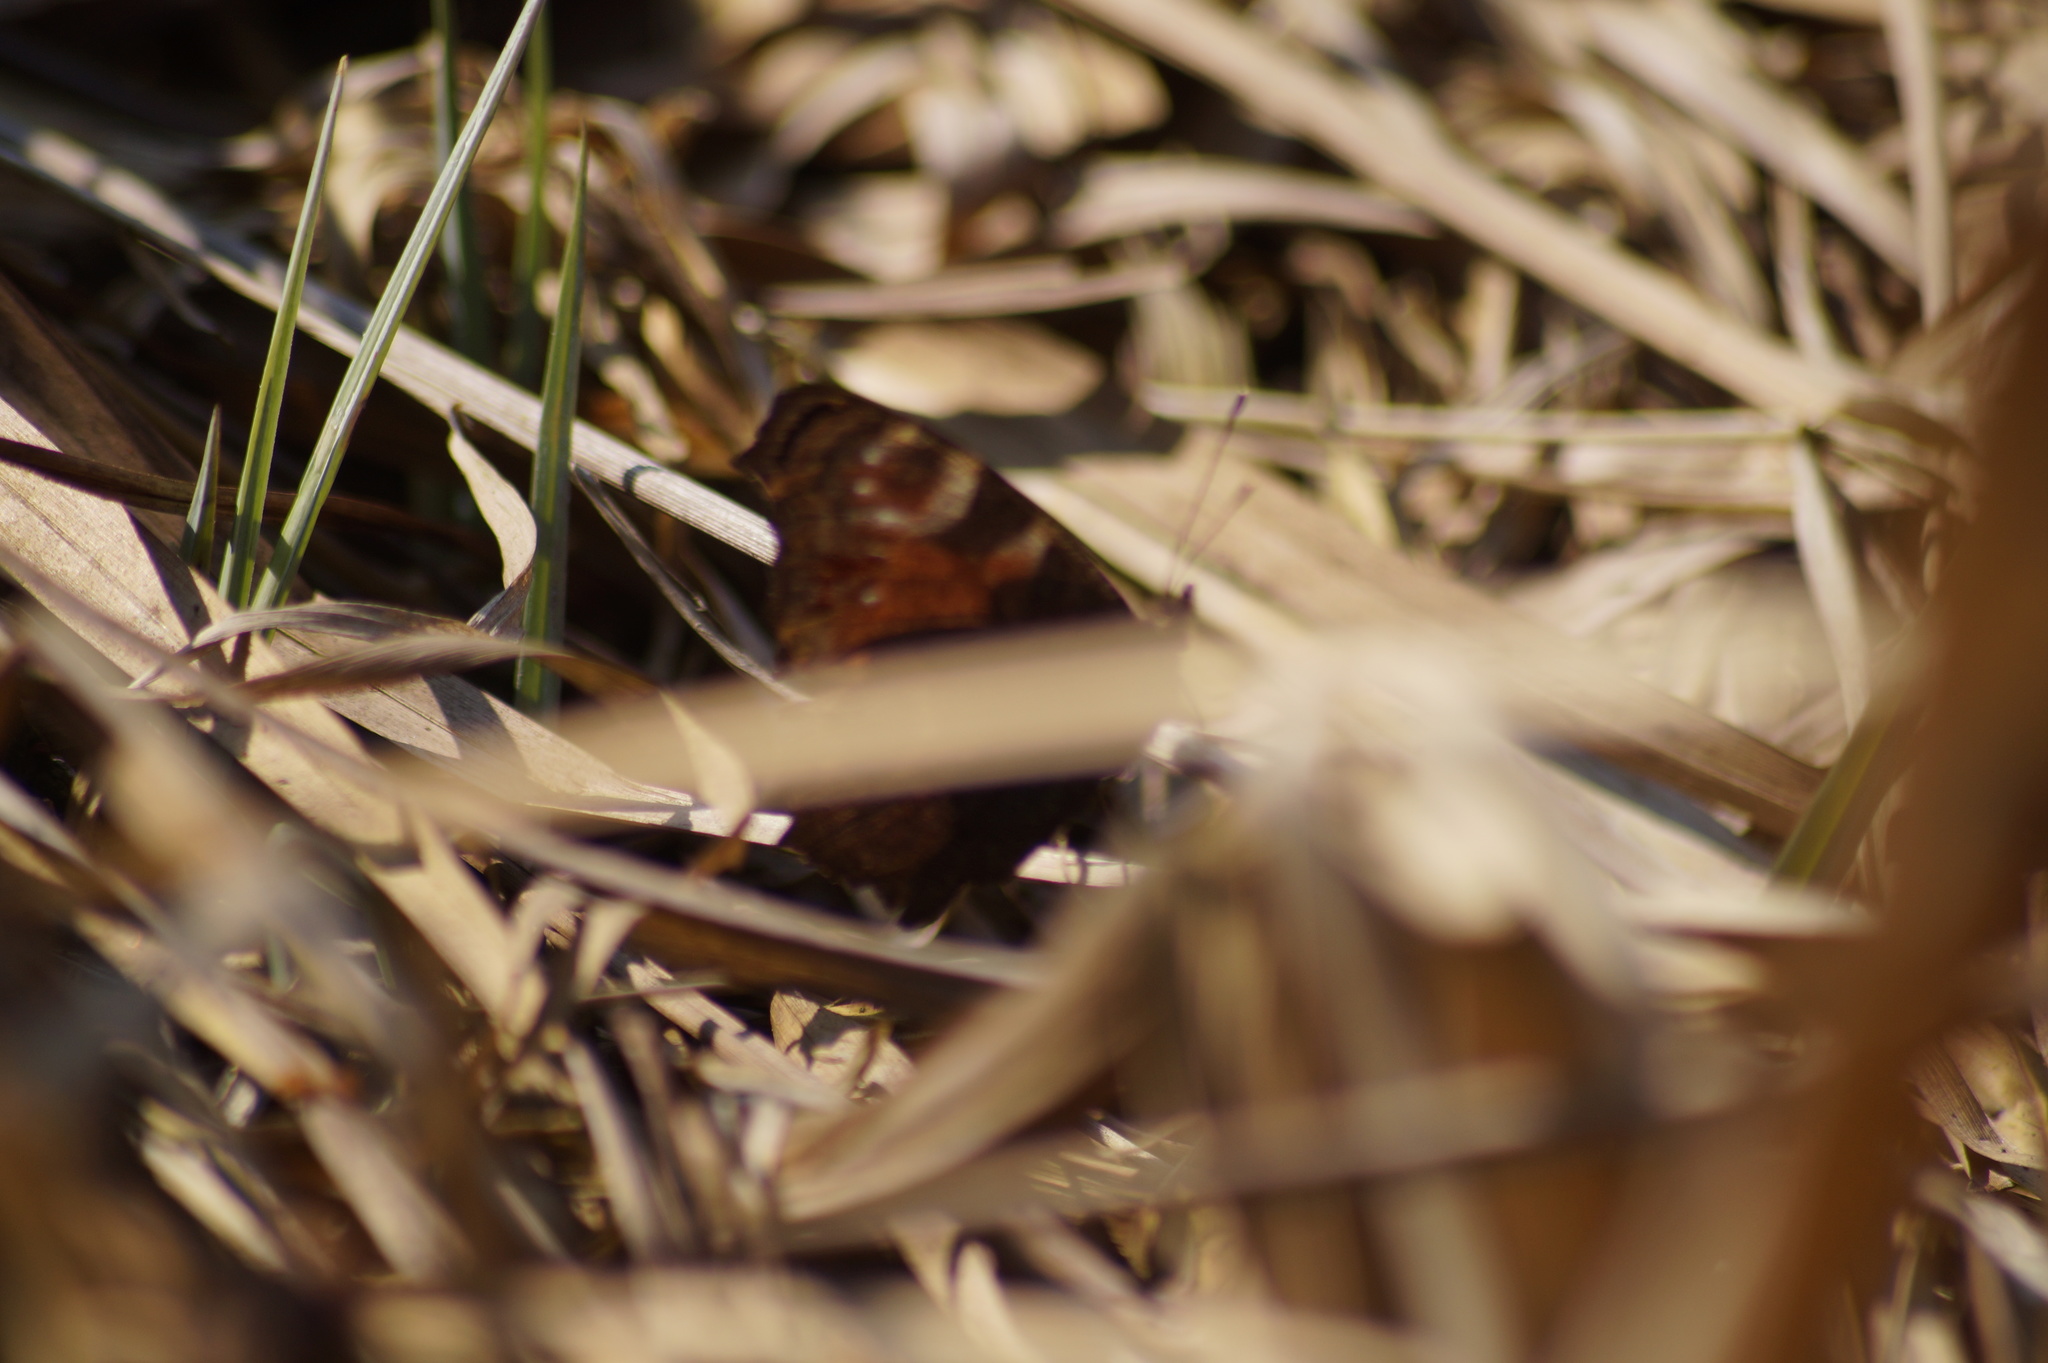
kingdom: Animalia
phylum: Arthropoda
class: Insecta
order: Lepidoptera
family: Nymphalidae
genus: Aglais
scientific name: Aglais io
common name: Peacock
